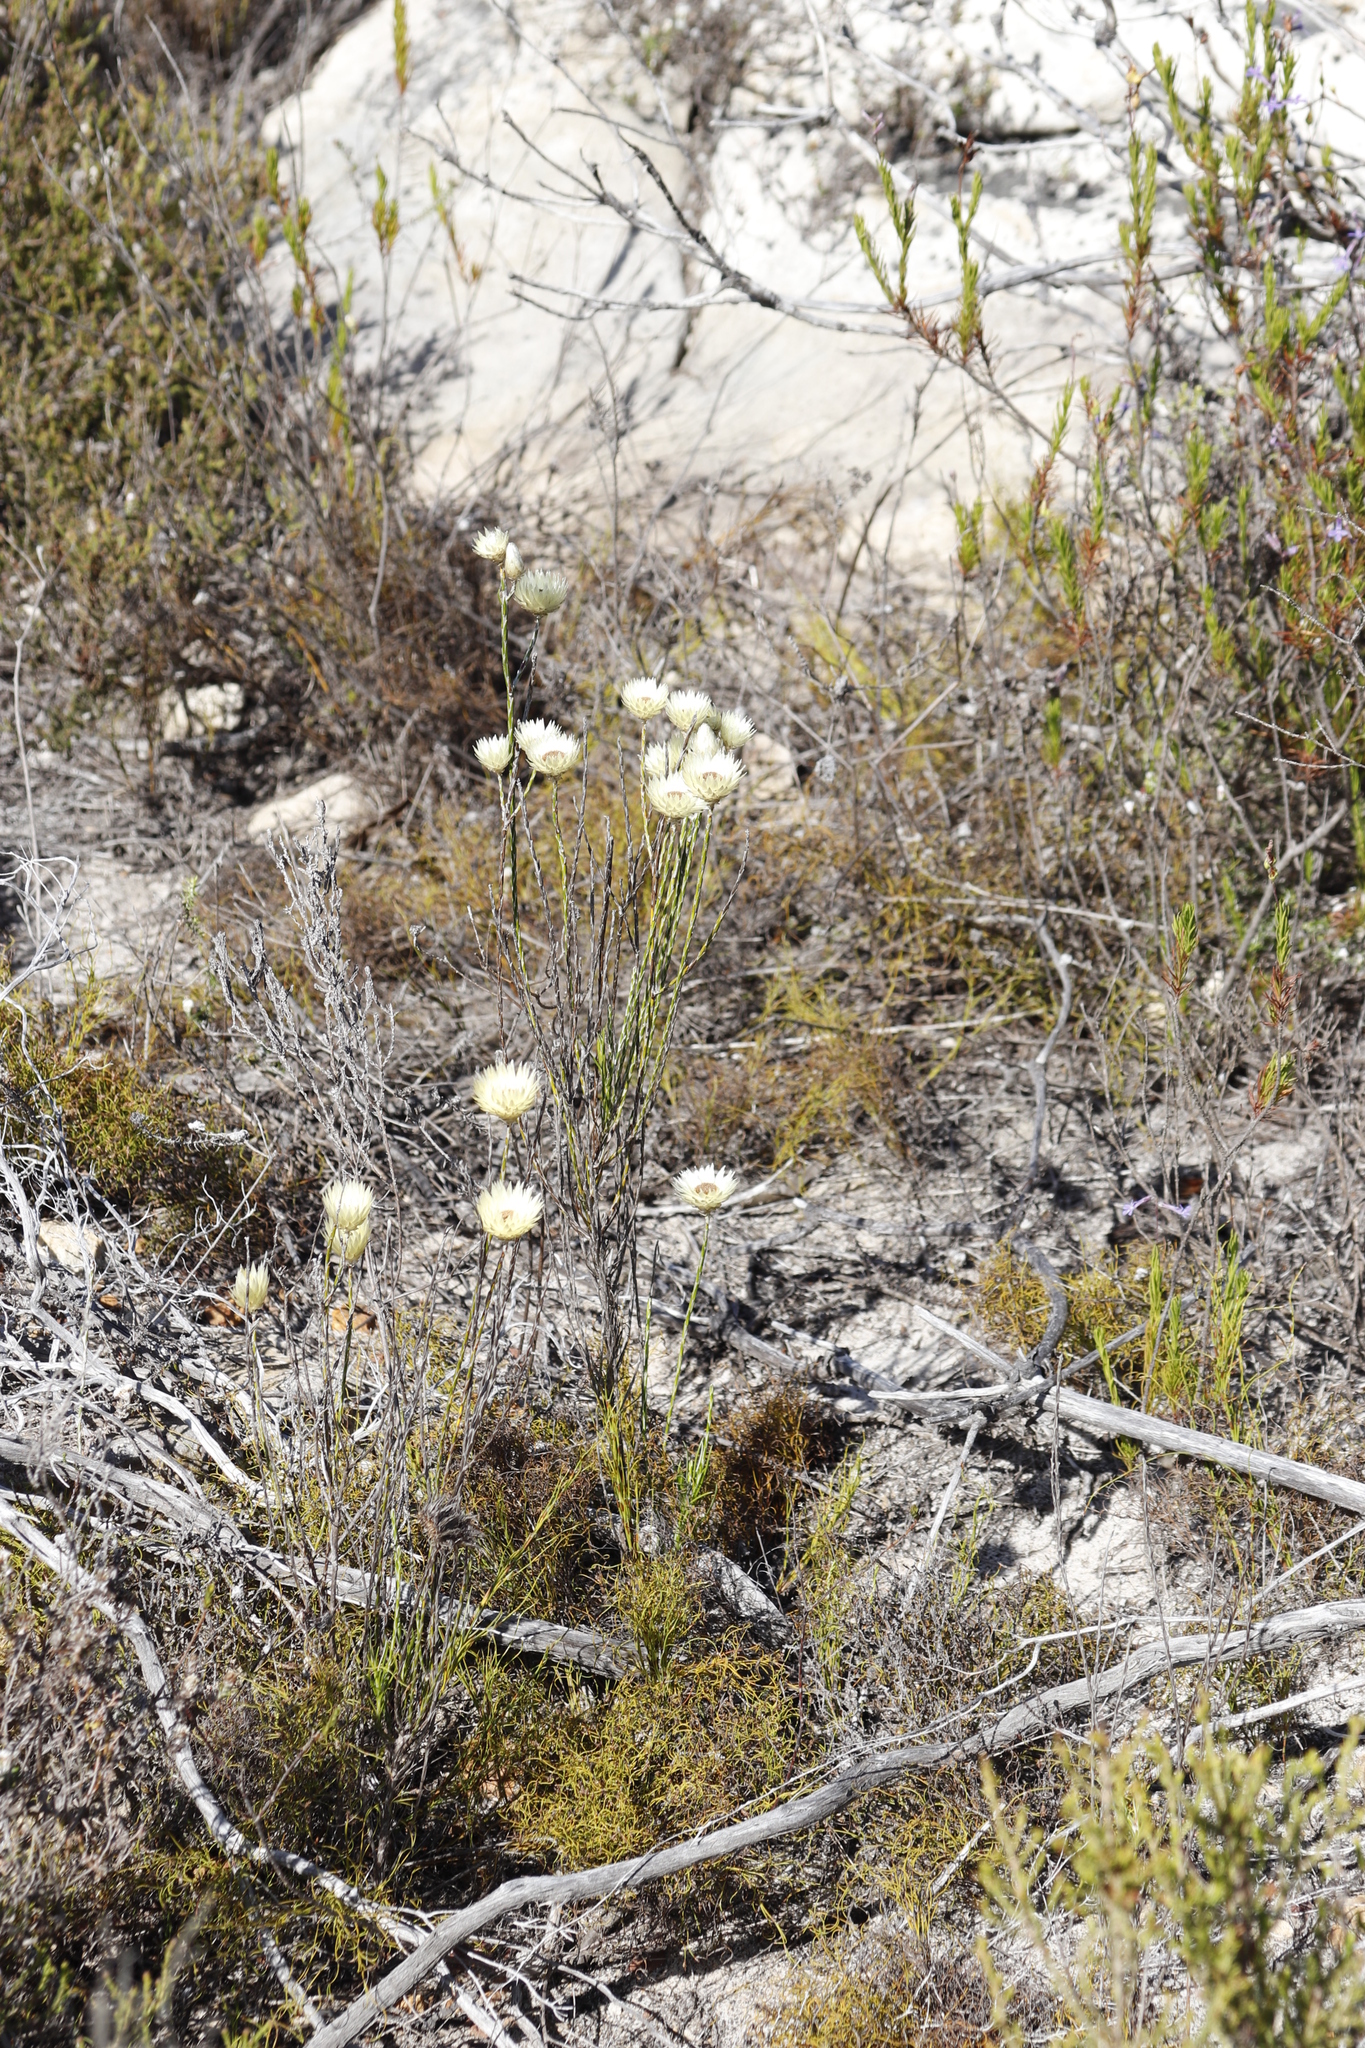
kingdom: Plantae
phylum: Tracheophyta
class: Magnoliopsida
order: Asterales
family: Asteraceae
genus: Edmondia
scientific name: Edmondia sesamoides
